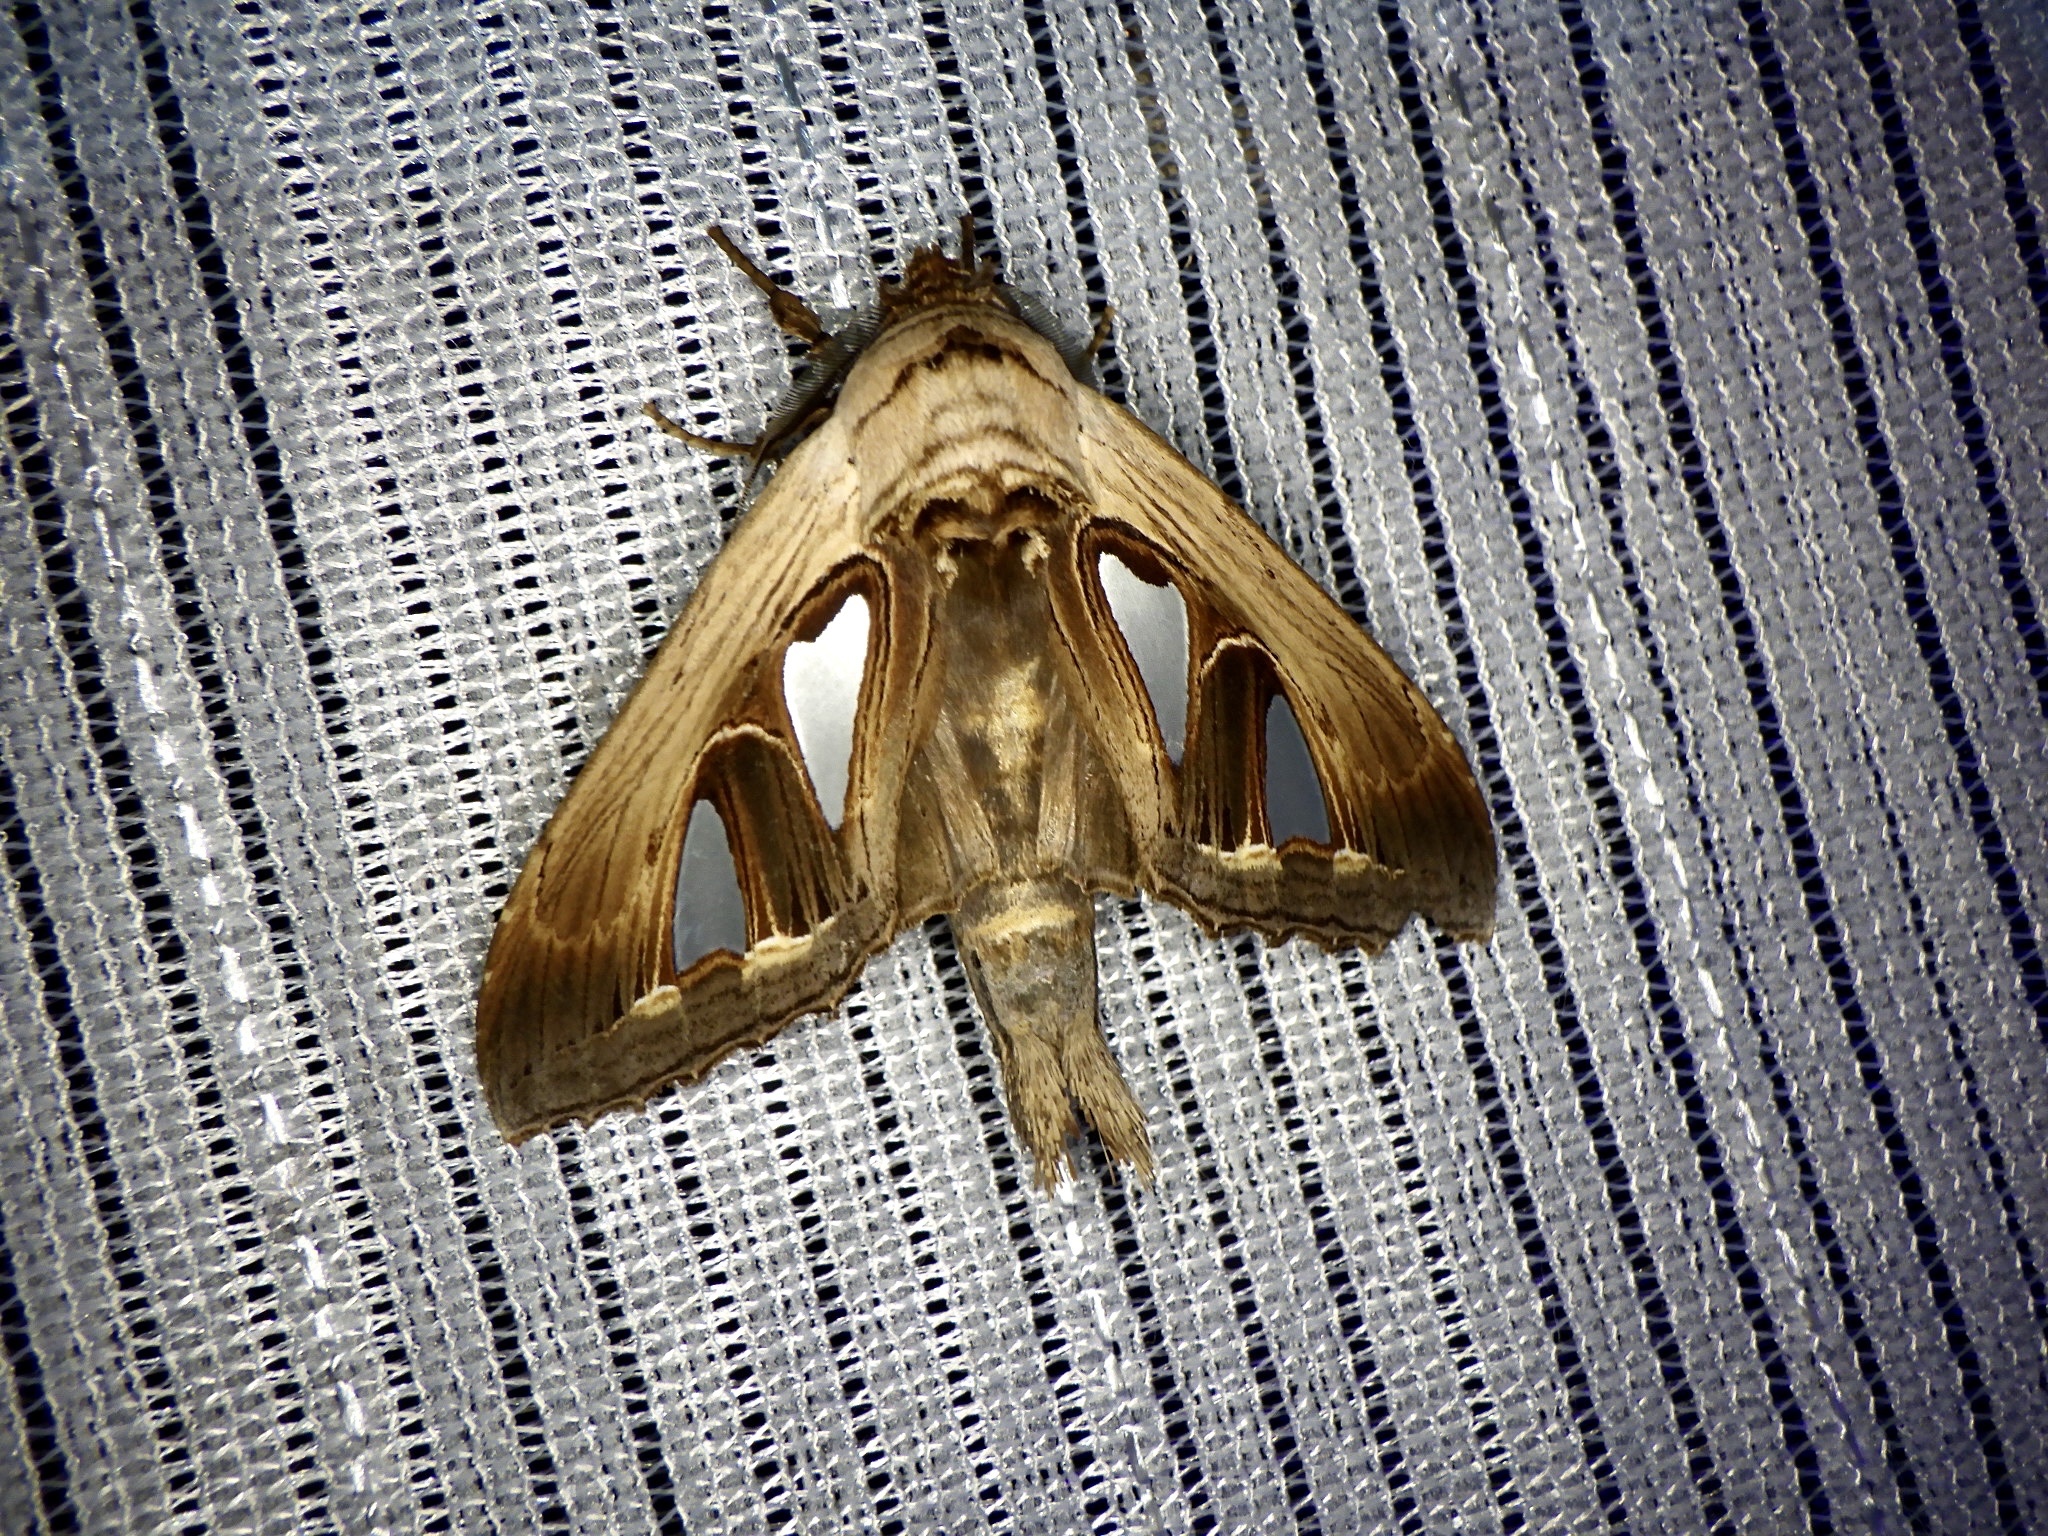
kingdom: Animalia
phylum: Arthropoda
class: Insecta
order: Lepidoptera
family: Notodontidae
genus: Tarsolepis
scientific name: Tarsolepis japonica
